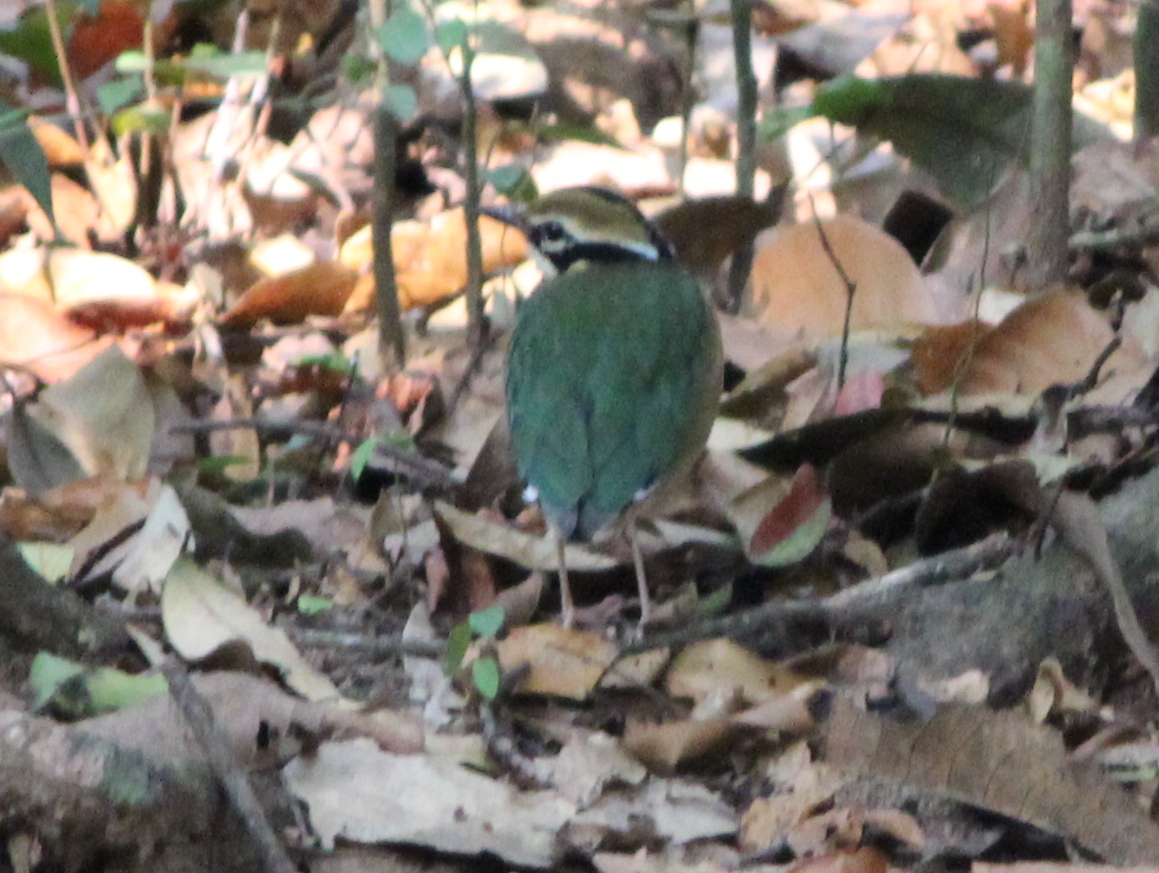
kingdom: Animalia
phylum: Chordata
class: Aves
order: Passeriformes
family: Pittidae
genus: Pitta
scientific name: Pitta brachyura
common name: Indian pitta
